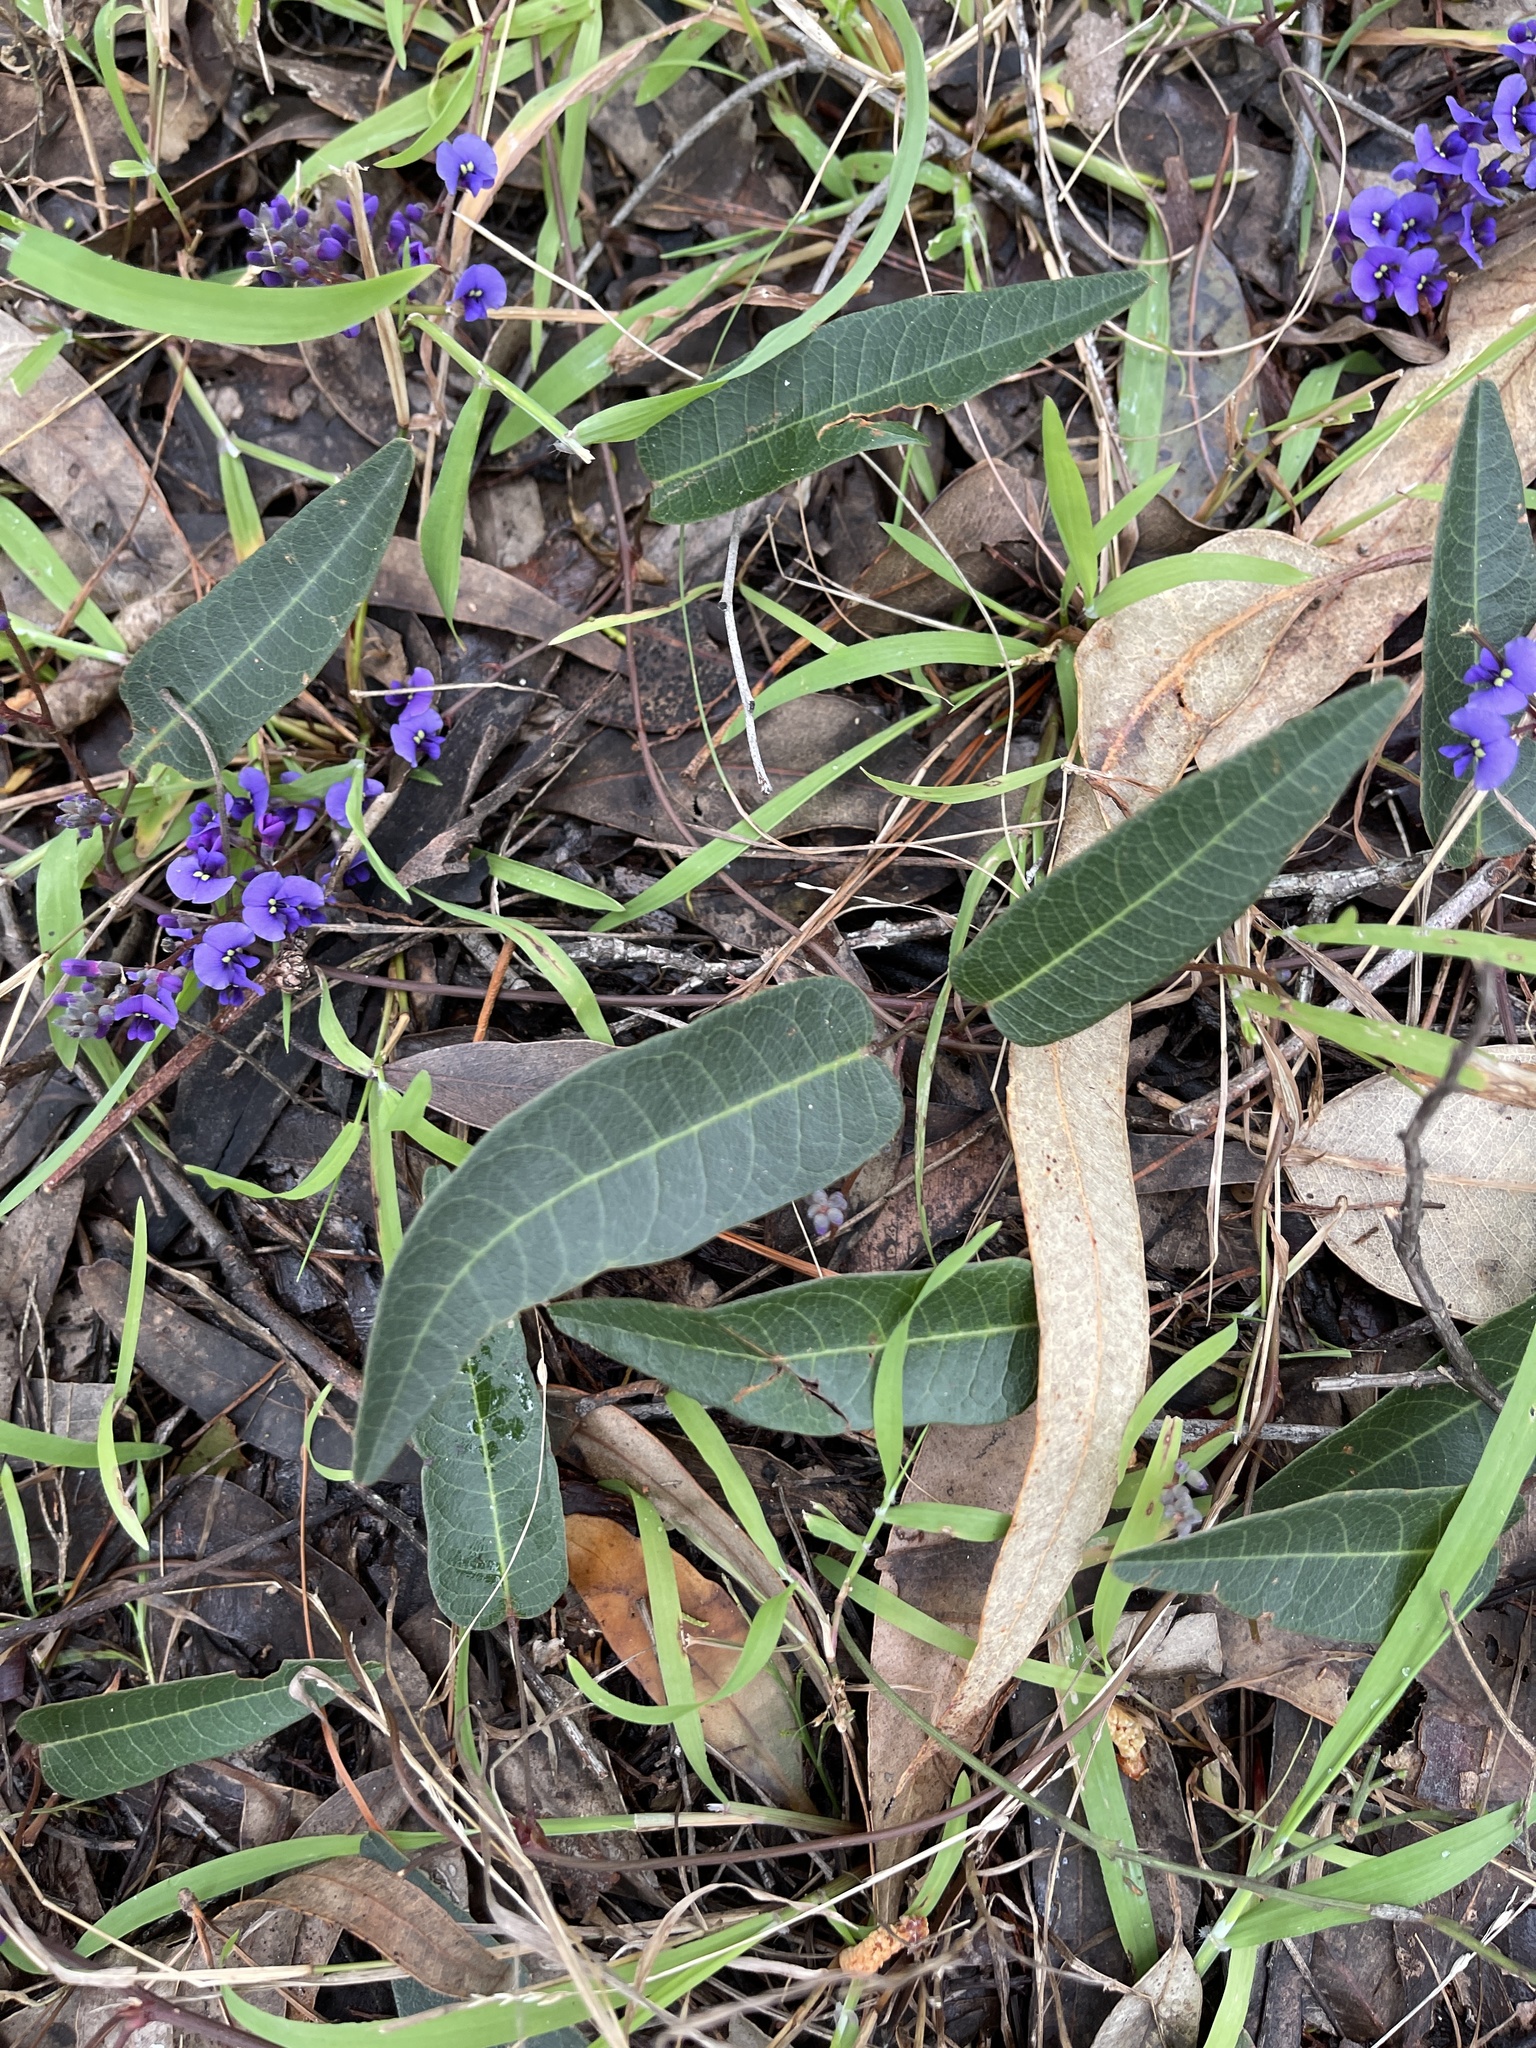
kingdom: Plantae
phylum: Tracheophyta
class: Magnoliopsida
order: Fabales
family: Fabaceae
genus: Hardenbergia
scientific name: Hardenbergia violacea
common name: Coral-pea
